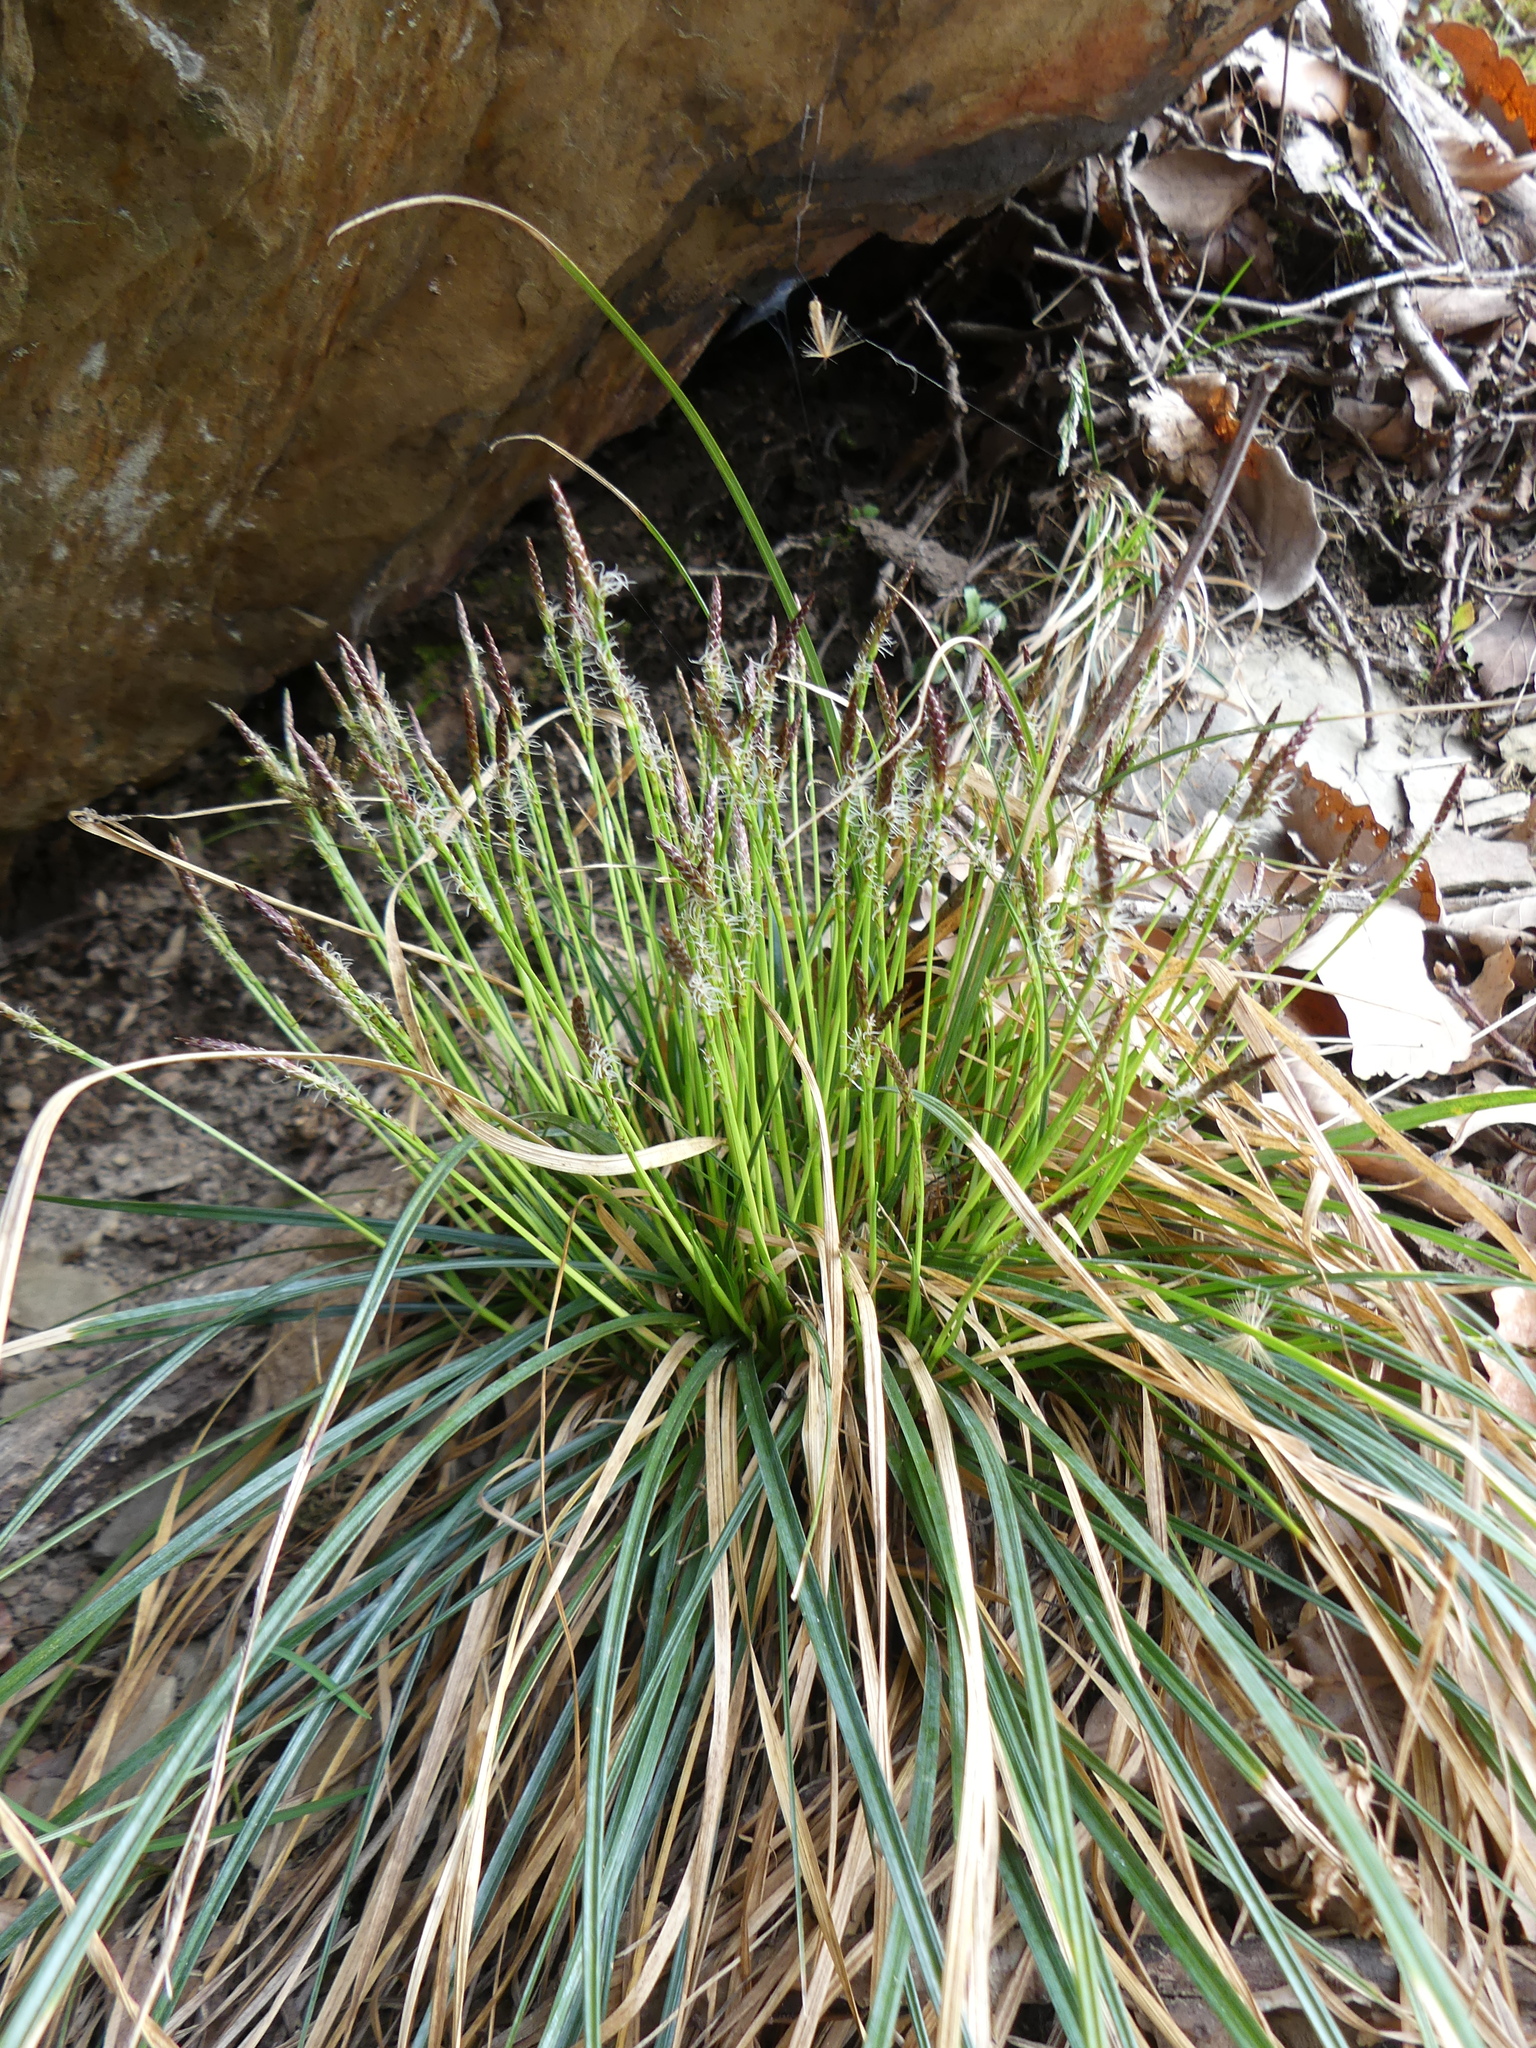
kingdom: Plantae
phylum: Tracheophyta
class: Liliopsida
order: Poales
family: Cyperaceae
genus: Carex
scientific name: Carex pensylvanica
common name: Common oak sedge
